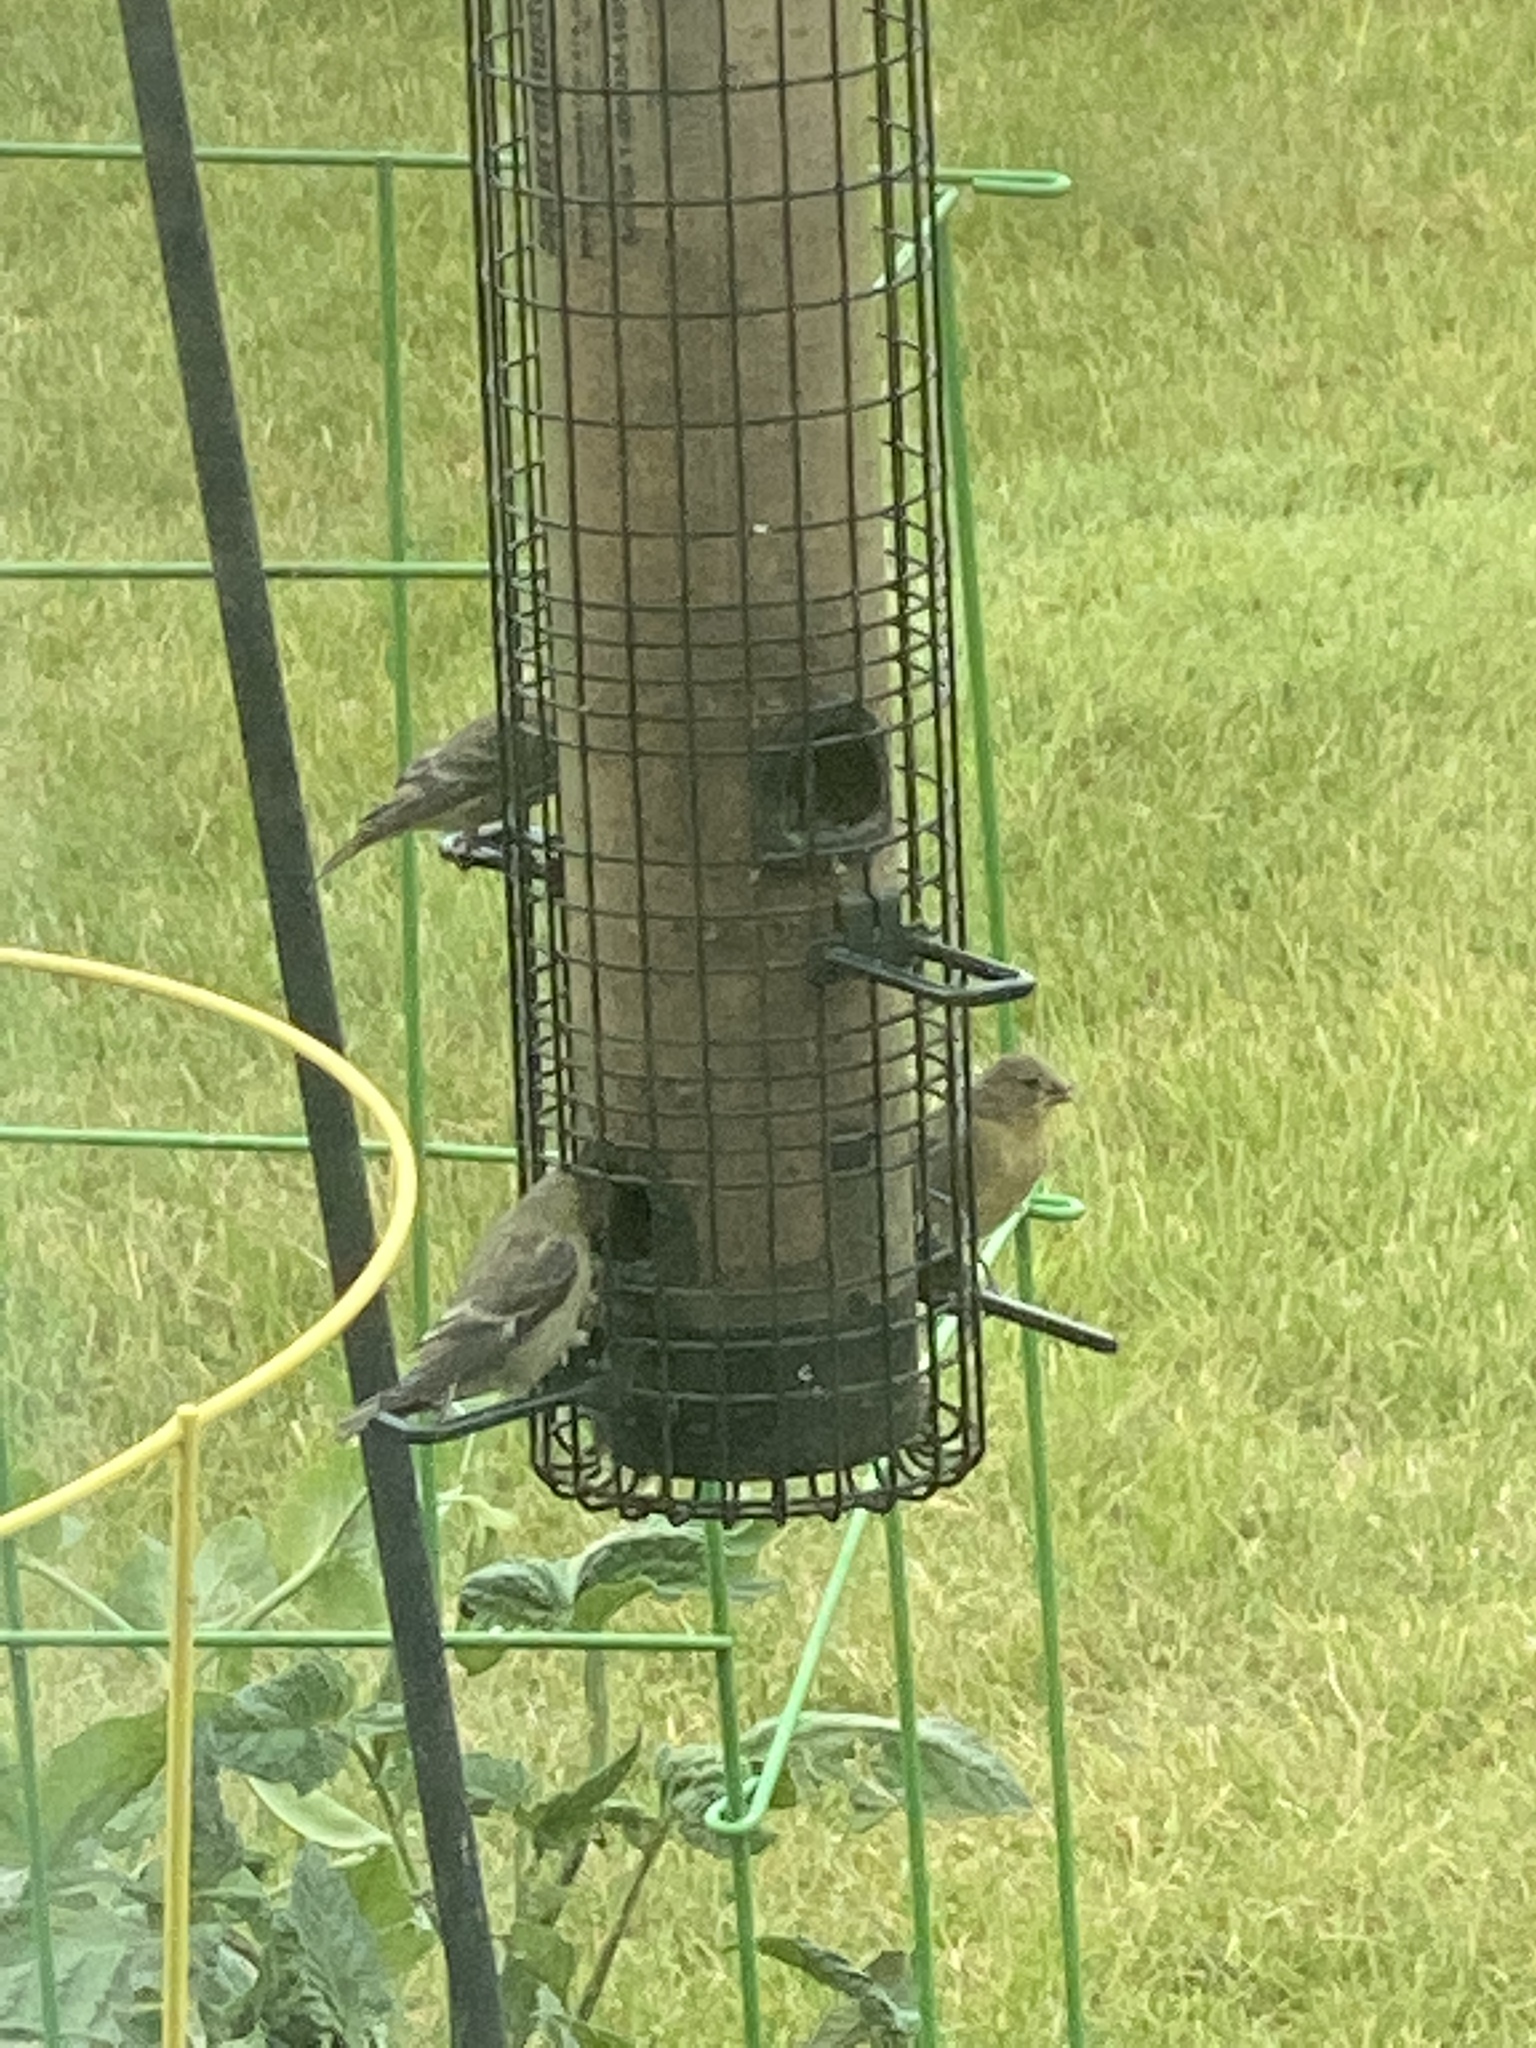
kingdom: Animalia
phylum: Chordata
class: Aves
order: Passeriformes
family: Fringillidae
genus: Spinus
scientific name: Spinus psaltria
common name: Lesser goldfinch
